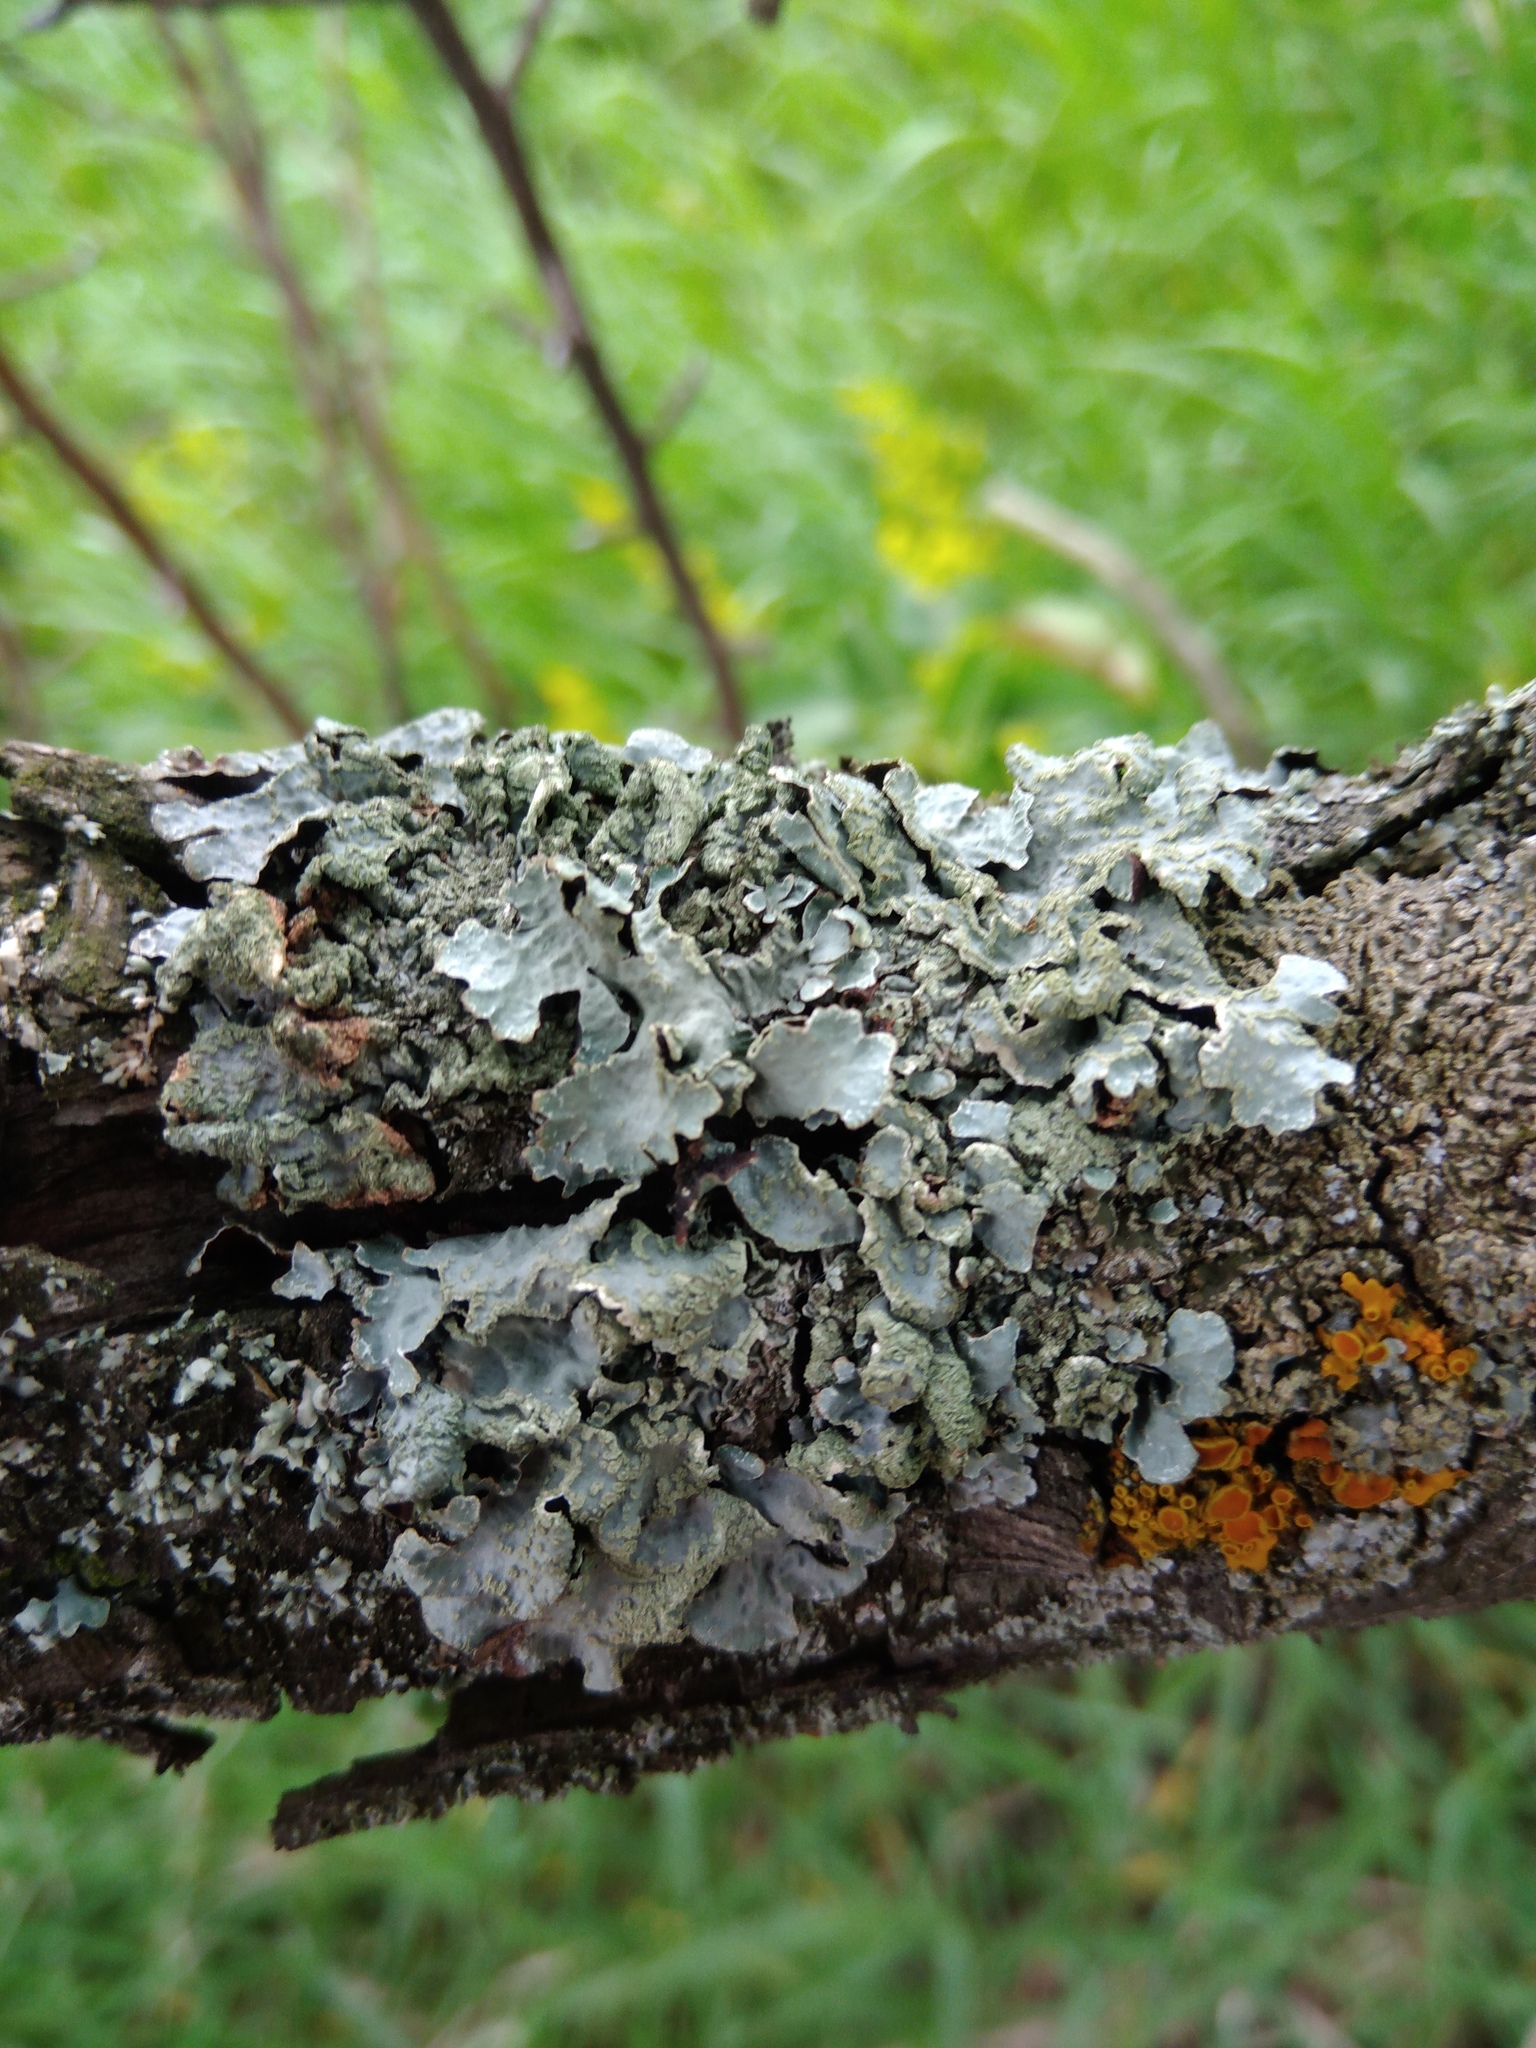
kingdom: Fungi
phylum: Ascomycota
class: Lecanoromycetes
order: Lecanorales
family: Parmeliaceae
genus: Parmelia
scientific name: Parmelia sulcata
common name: Netted shield lichen
